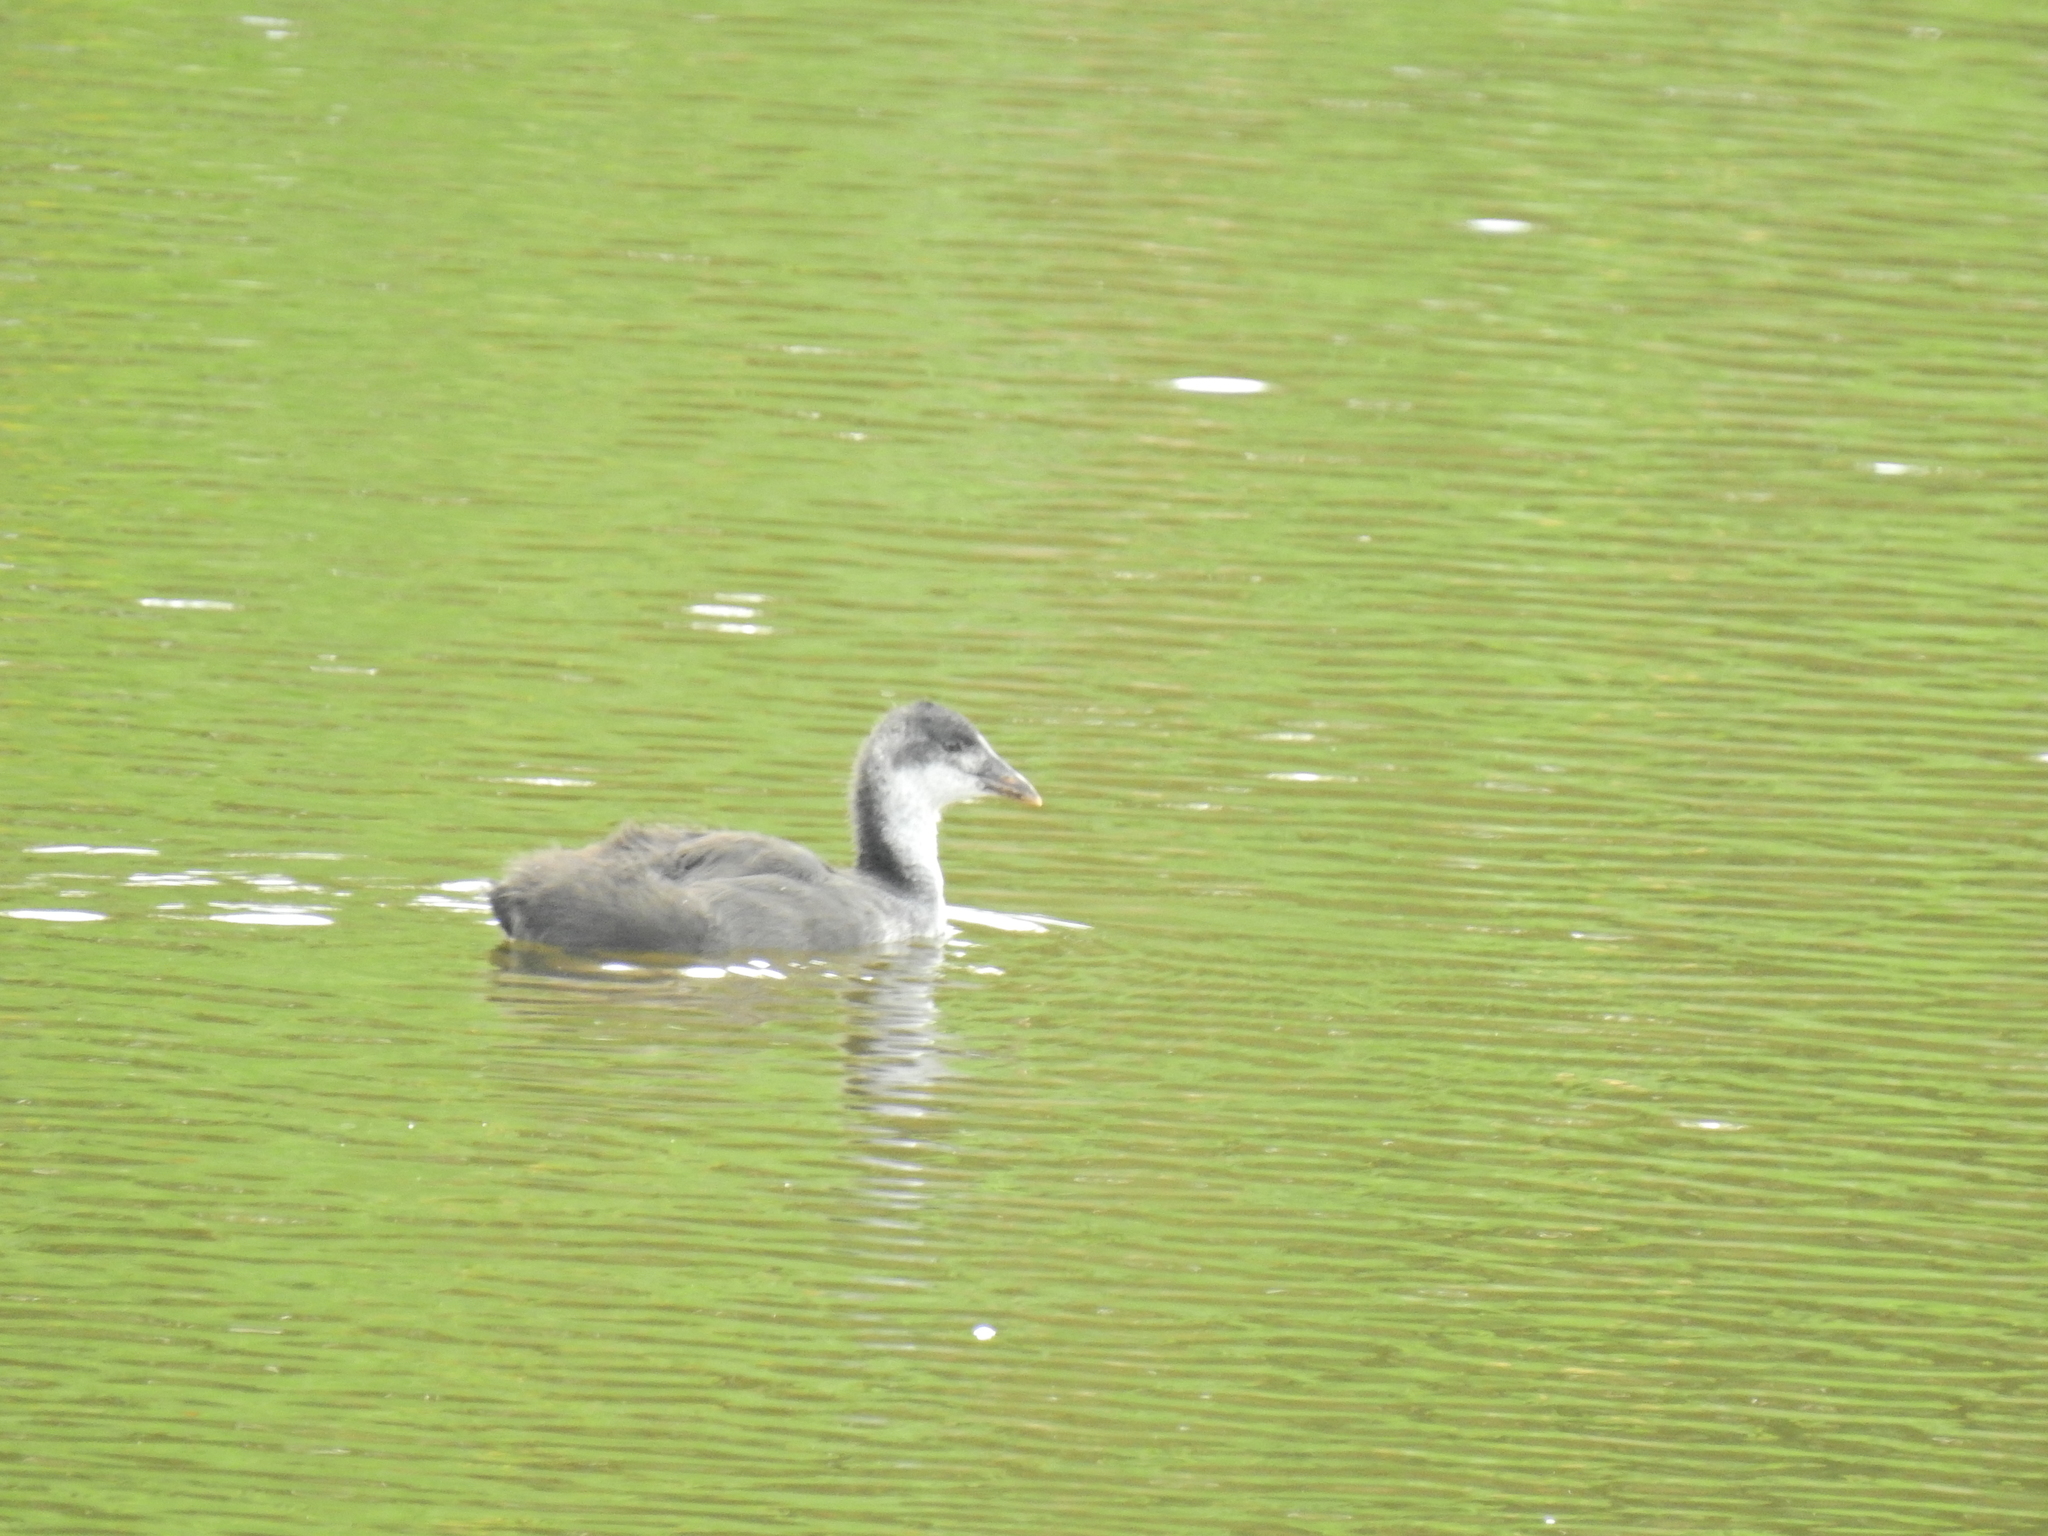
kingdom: Animalia
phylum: Chordata
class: Aves
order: Gruiformes
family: Rallidae
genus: Fulica
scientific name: Fulica atra
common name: Eurasian coot
